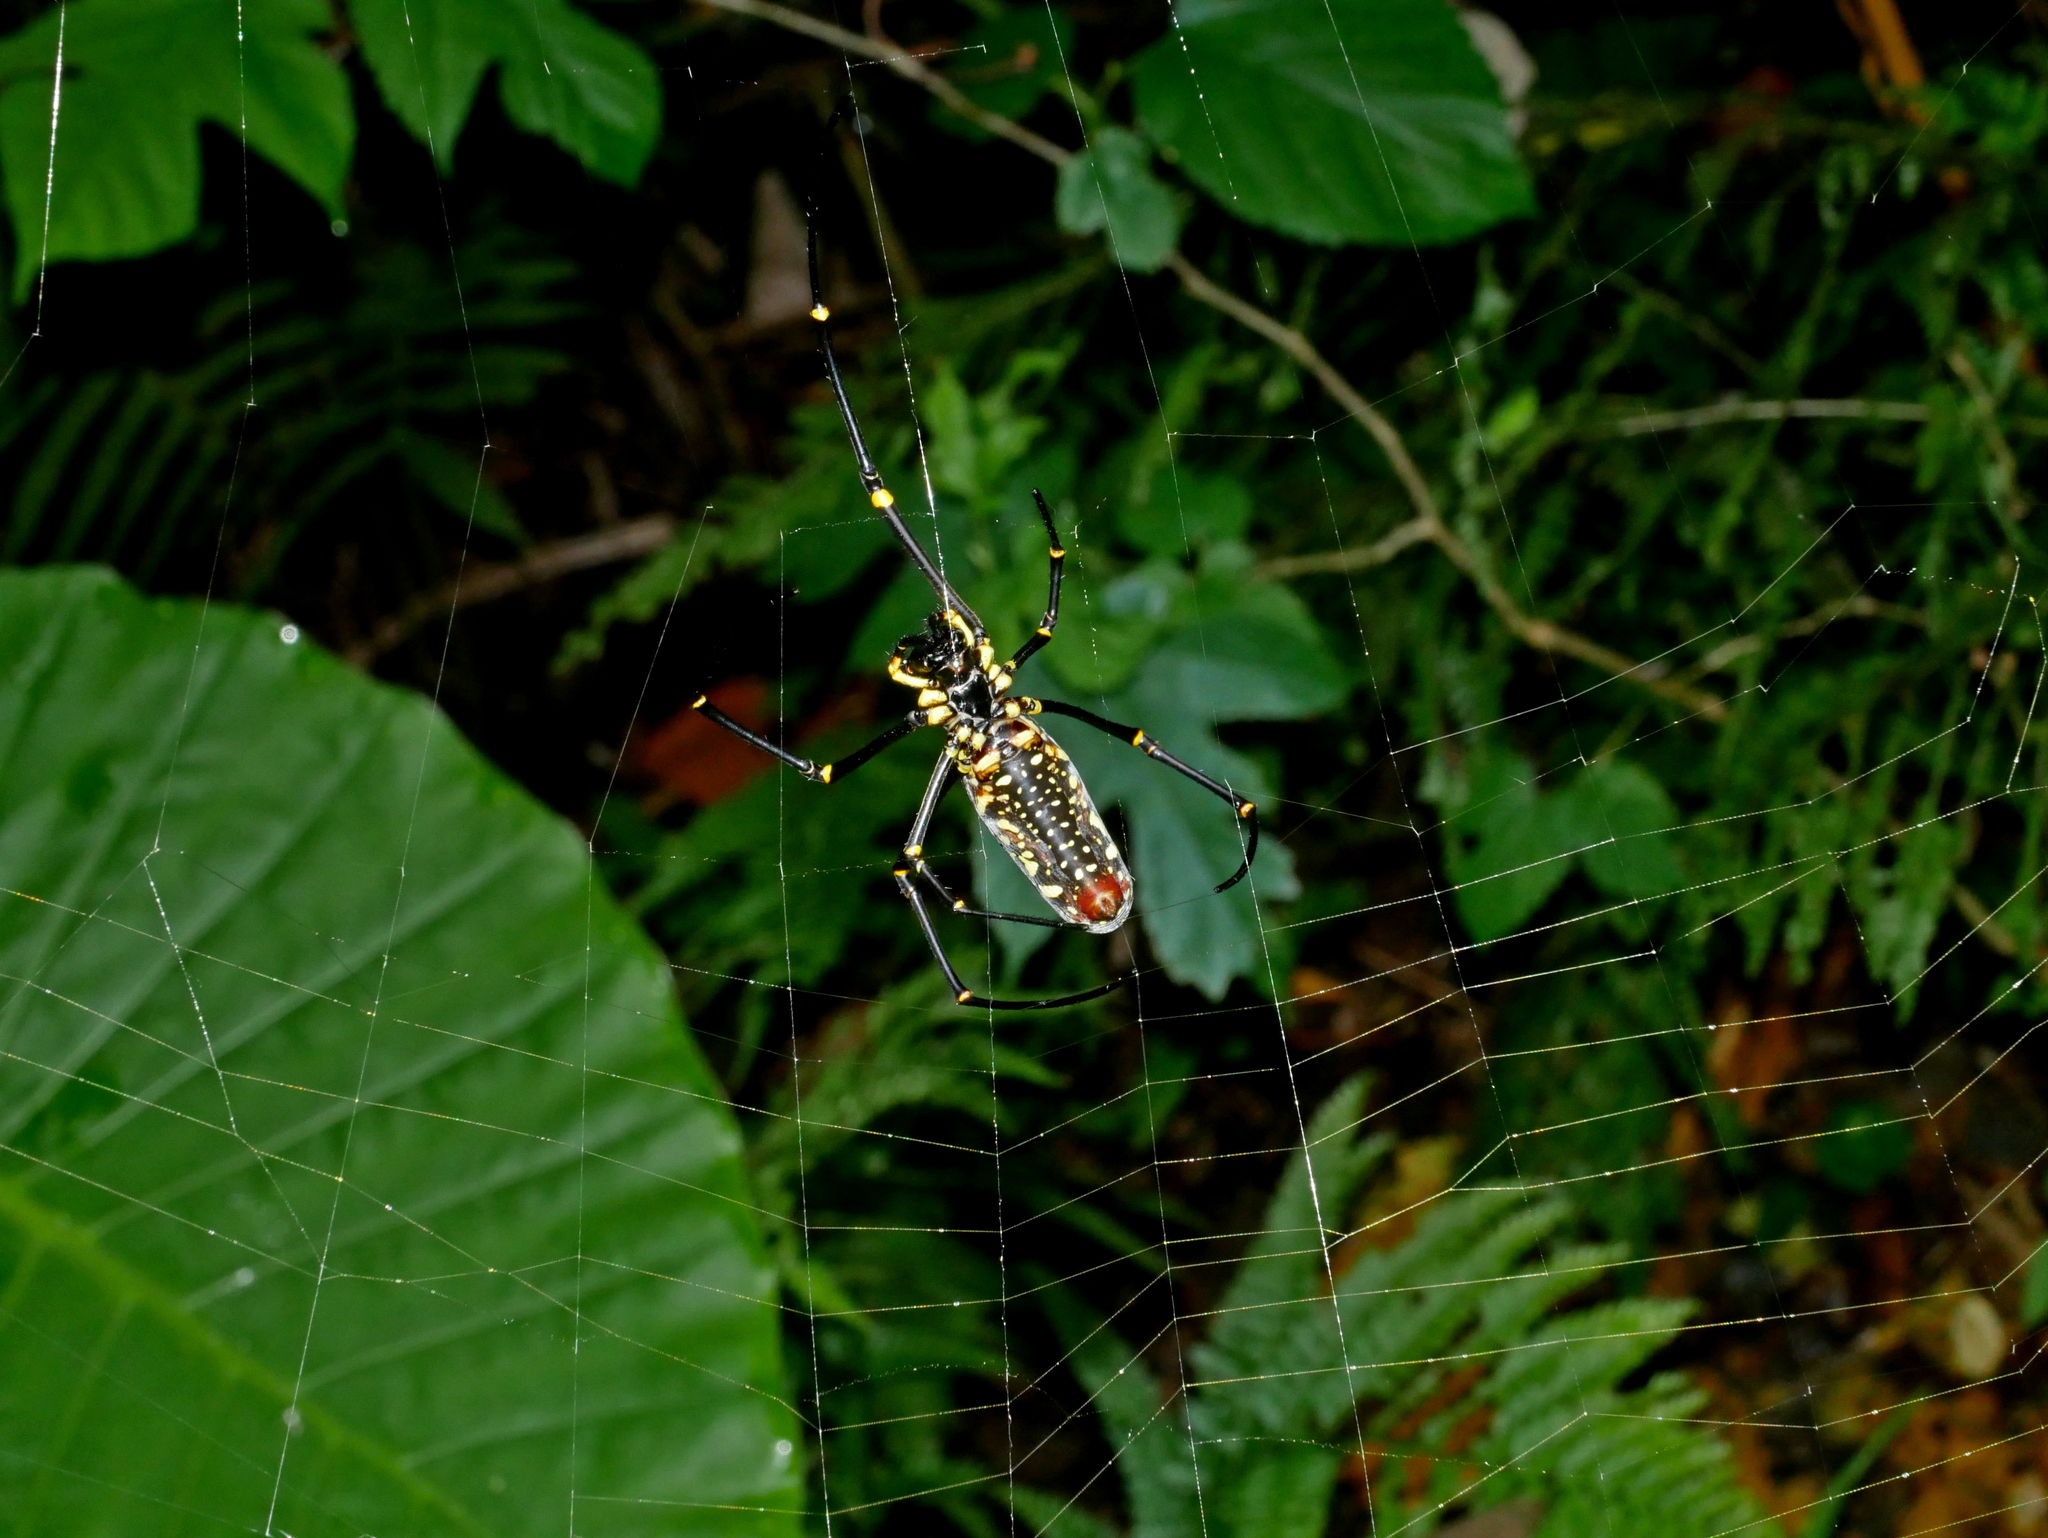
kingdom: Animalia
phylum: Arthropoda
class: Arachnida
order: Araneae
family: Araneidae
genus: Nephila
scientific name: Nephila pilipes
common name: Giant golden orb weaver
